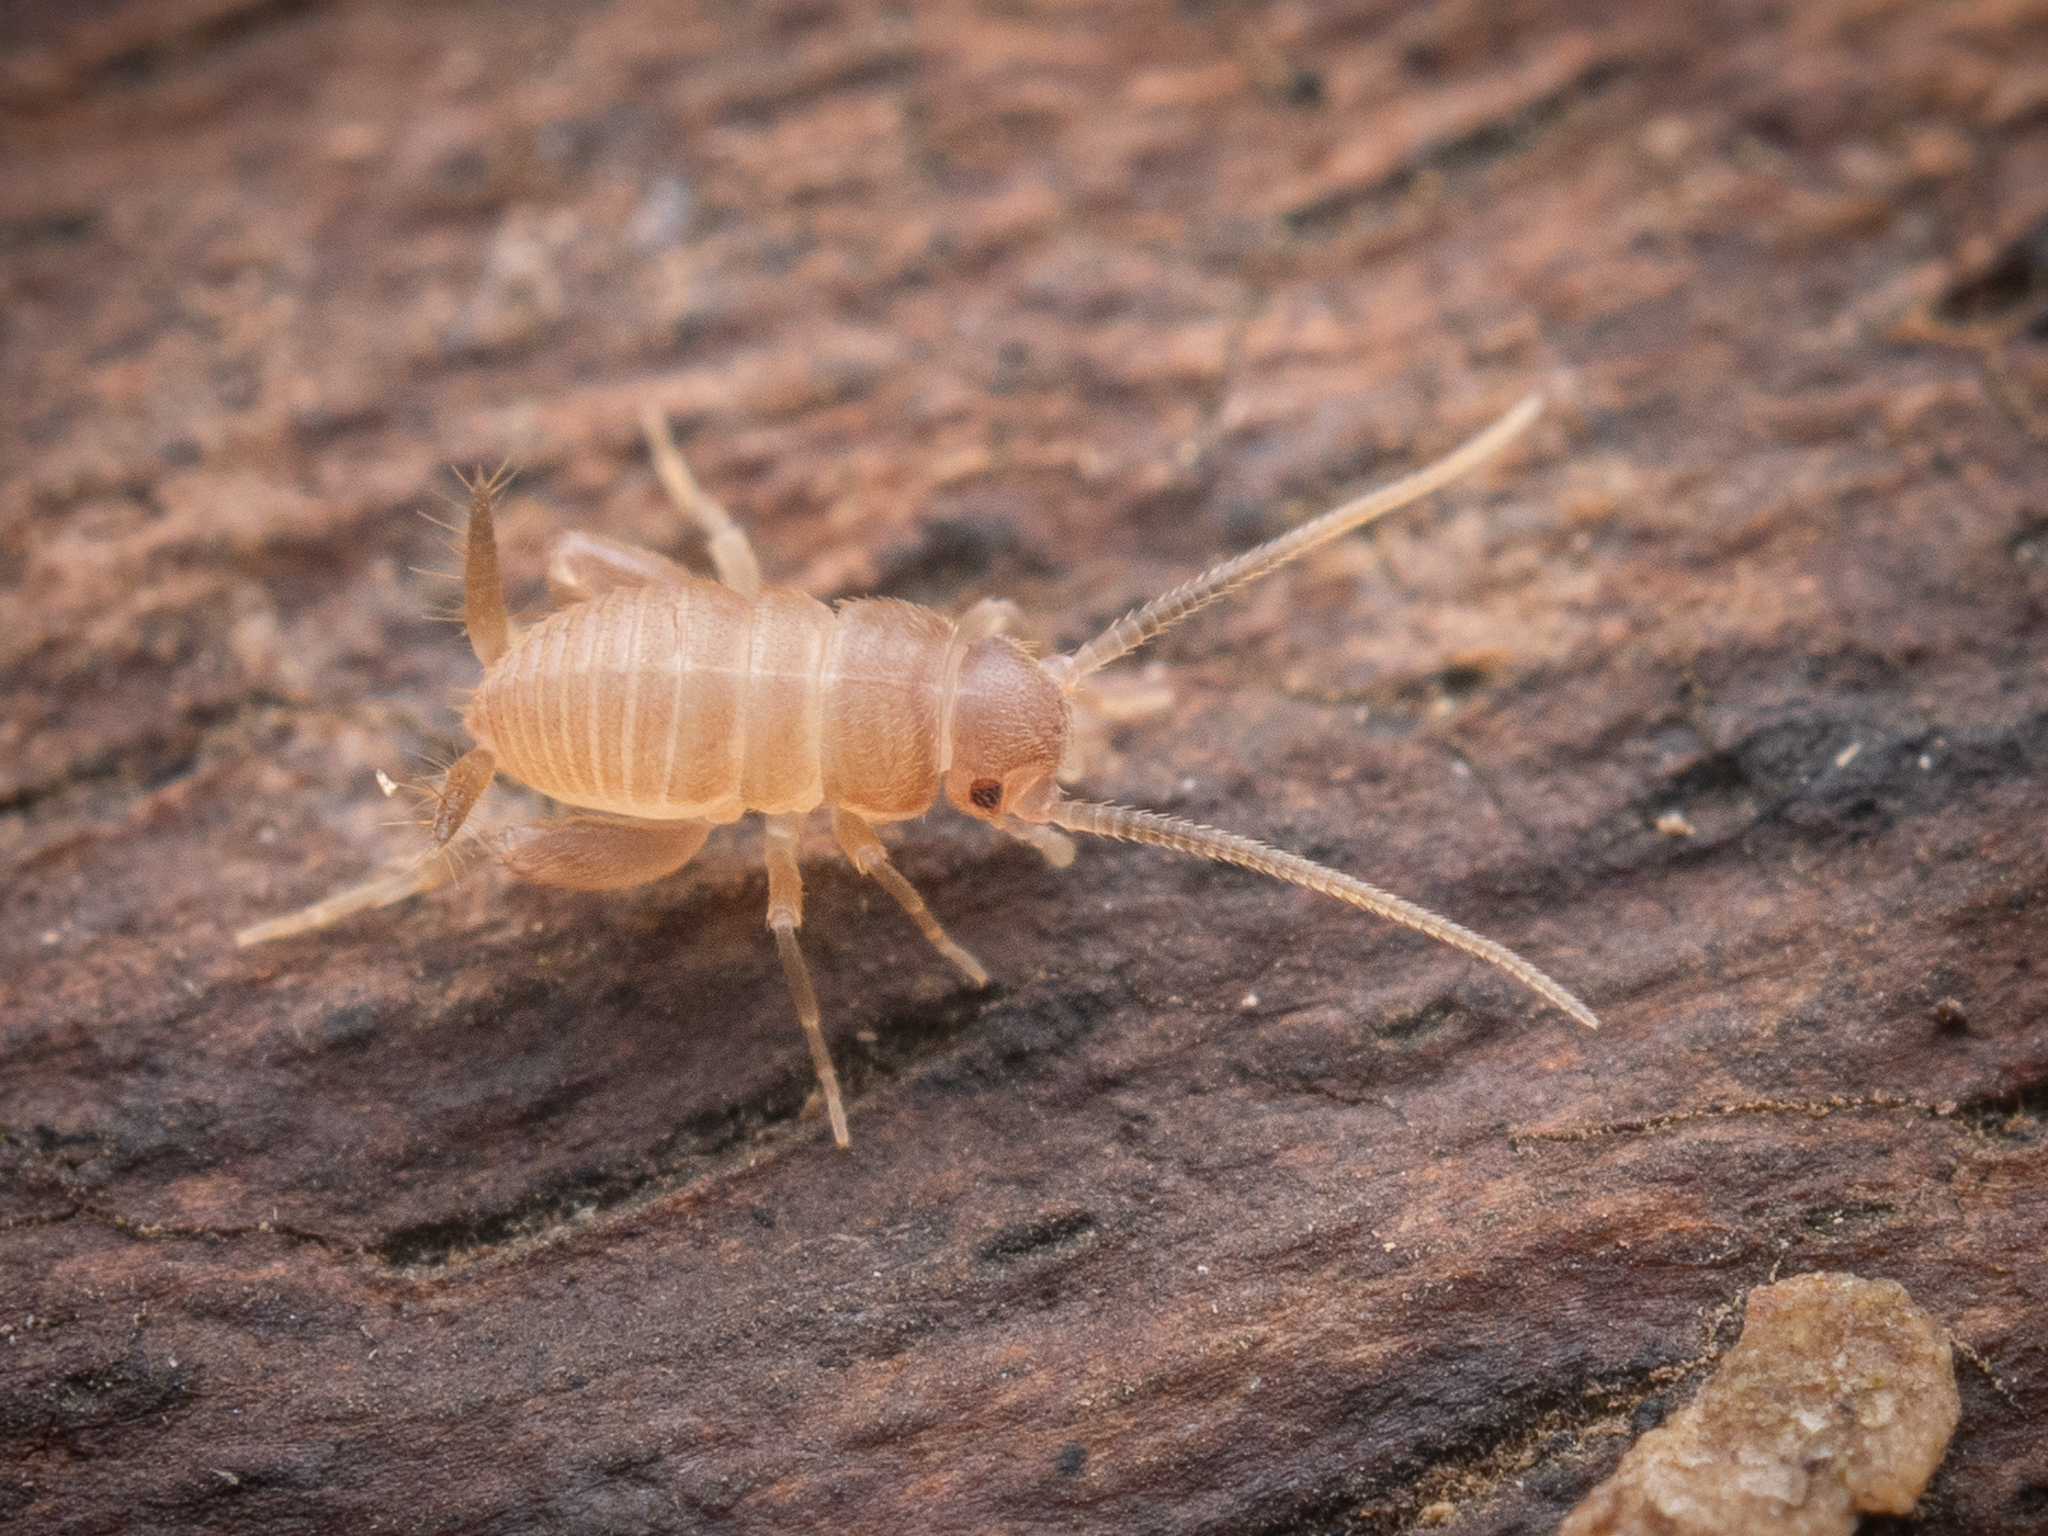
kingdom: Animalia
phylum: Arthropoda
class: Insecta
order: Orthoptera
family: Myrmecophilidae
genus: Myrmecophilus
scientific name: Myrmecophilus acervorum
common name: Ants-nest cricket
